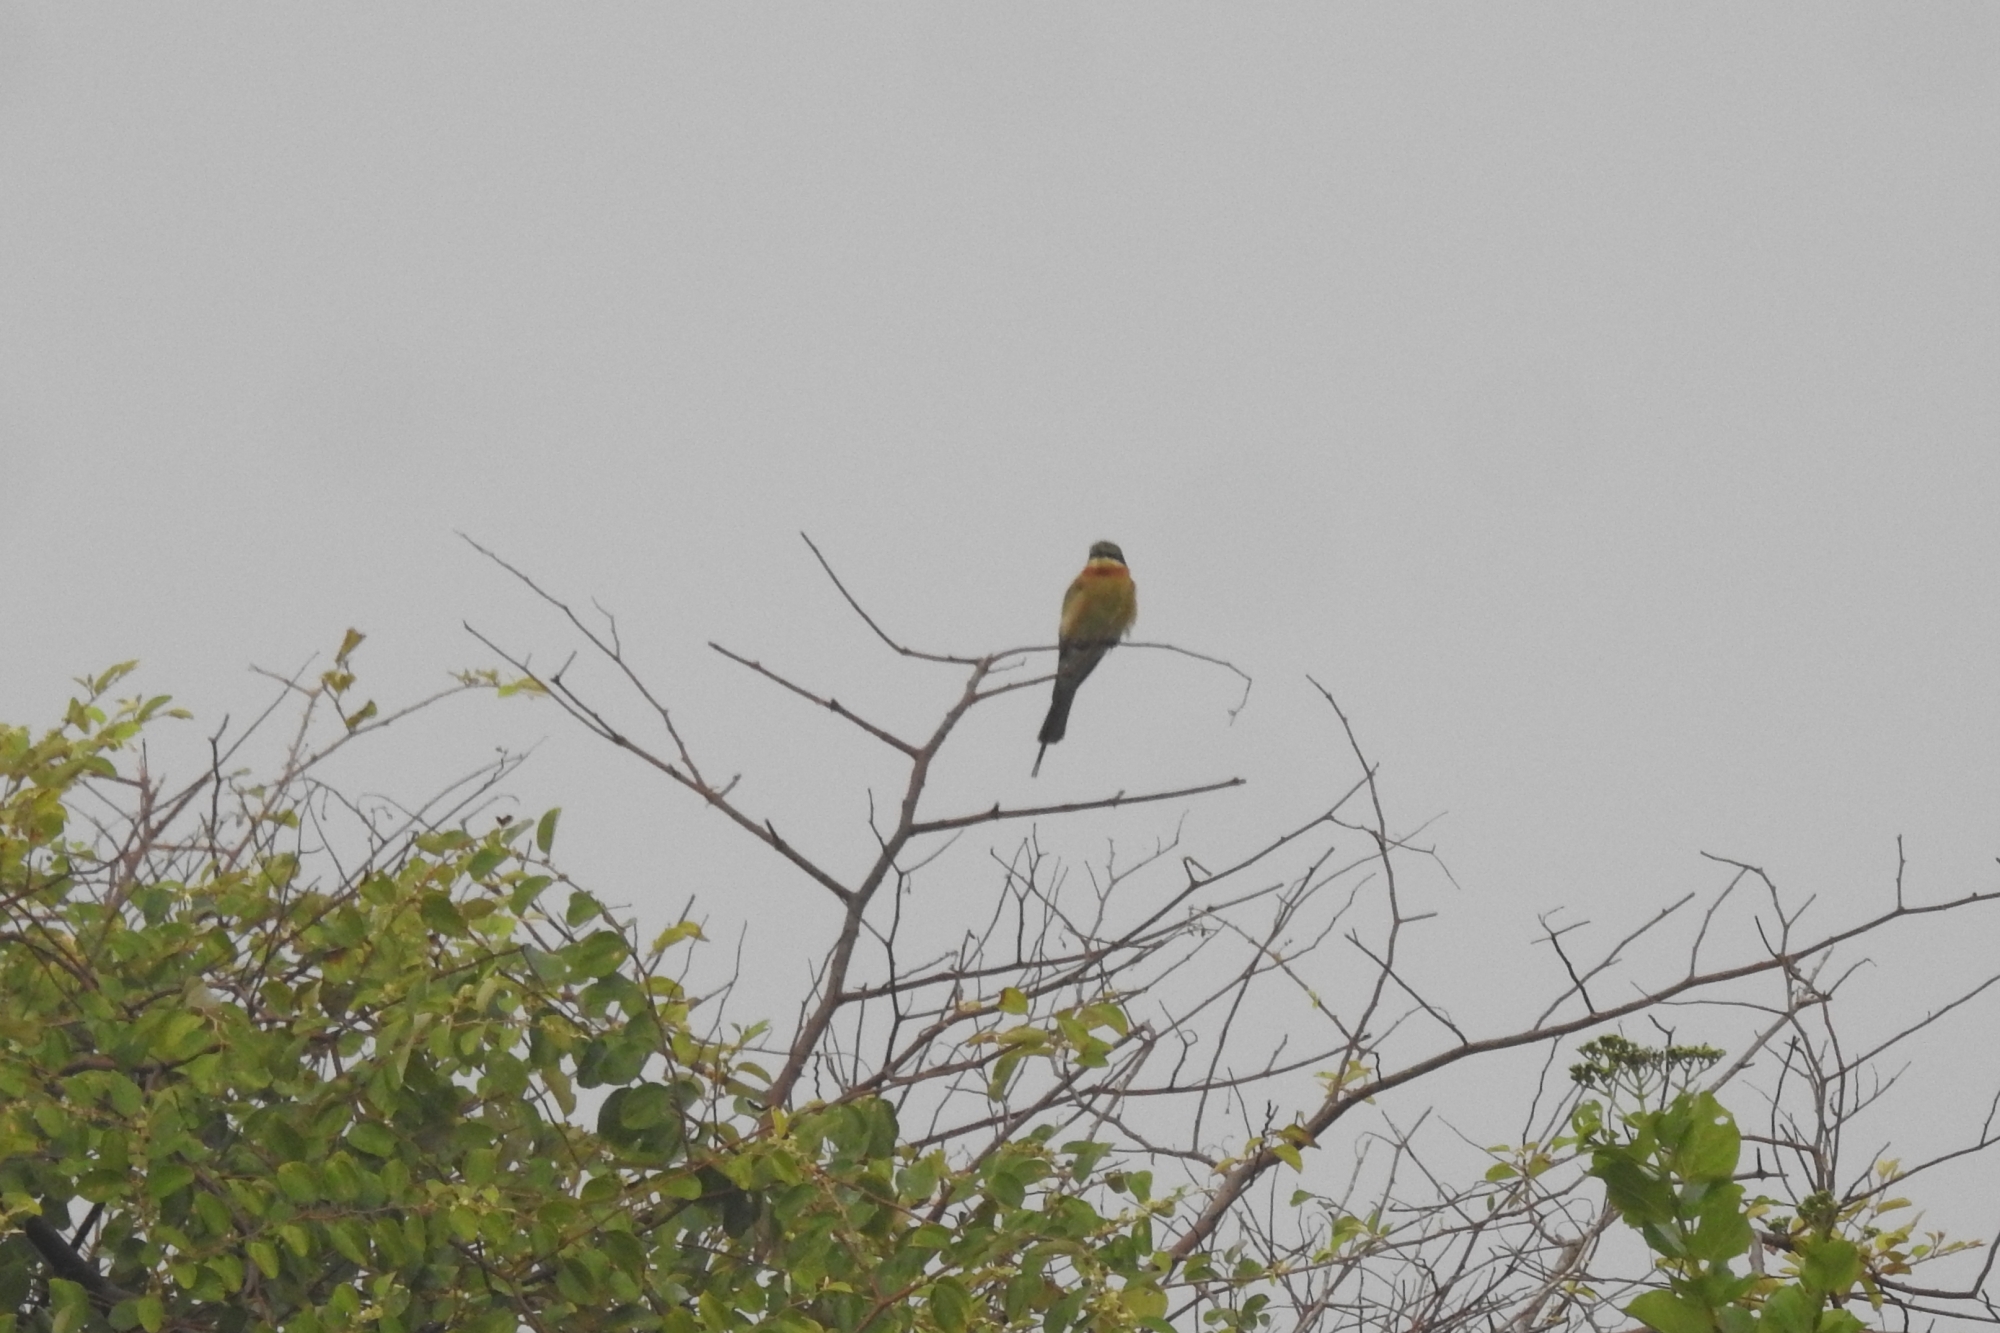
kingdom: Animalia
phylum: Chordata
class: Aves
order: Coraciiformes
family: Meropidae
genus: Merops
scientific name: Merops philippinus
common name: Blue-tailed bee-eater
